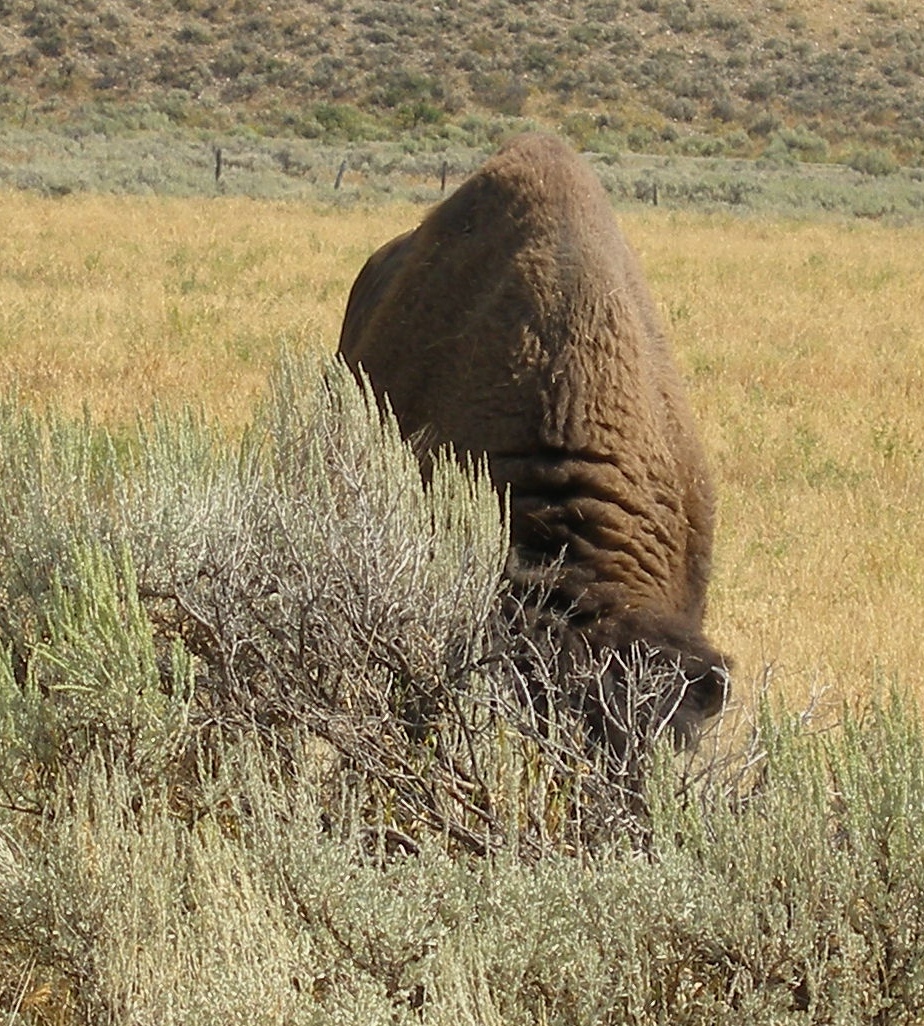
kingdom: Animalia
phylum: Chordata
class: Mammalia
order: Artiodactyla
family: Bovidae
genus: Bison
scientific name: Bison bison
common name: American bison
